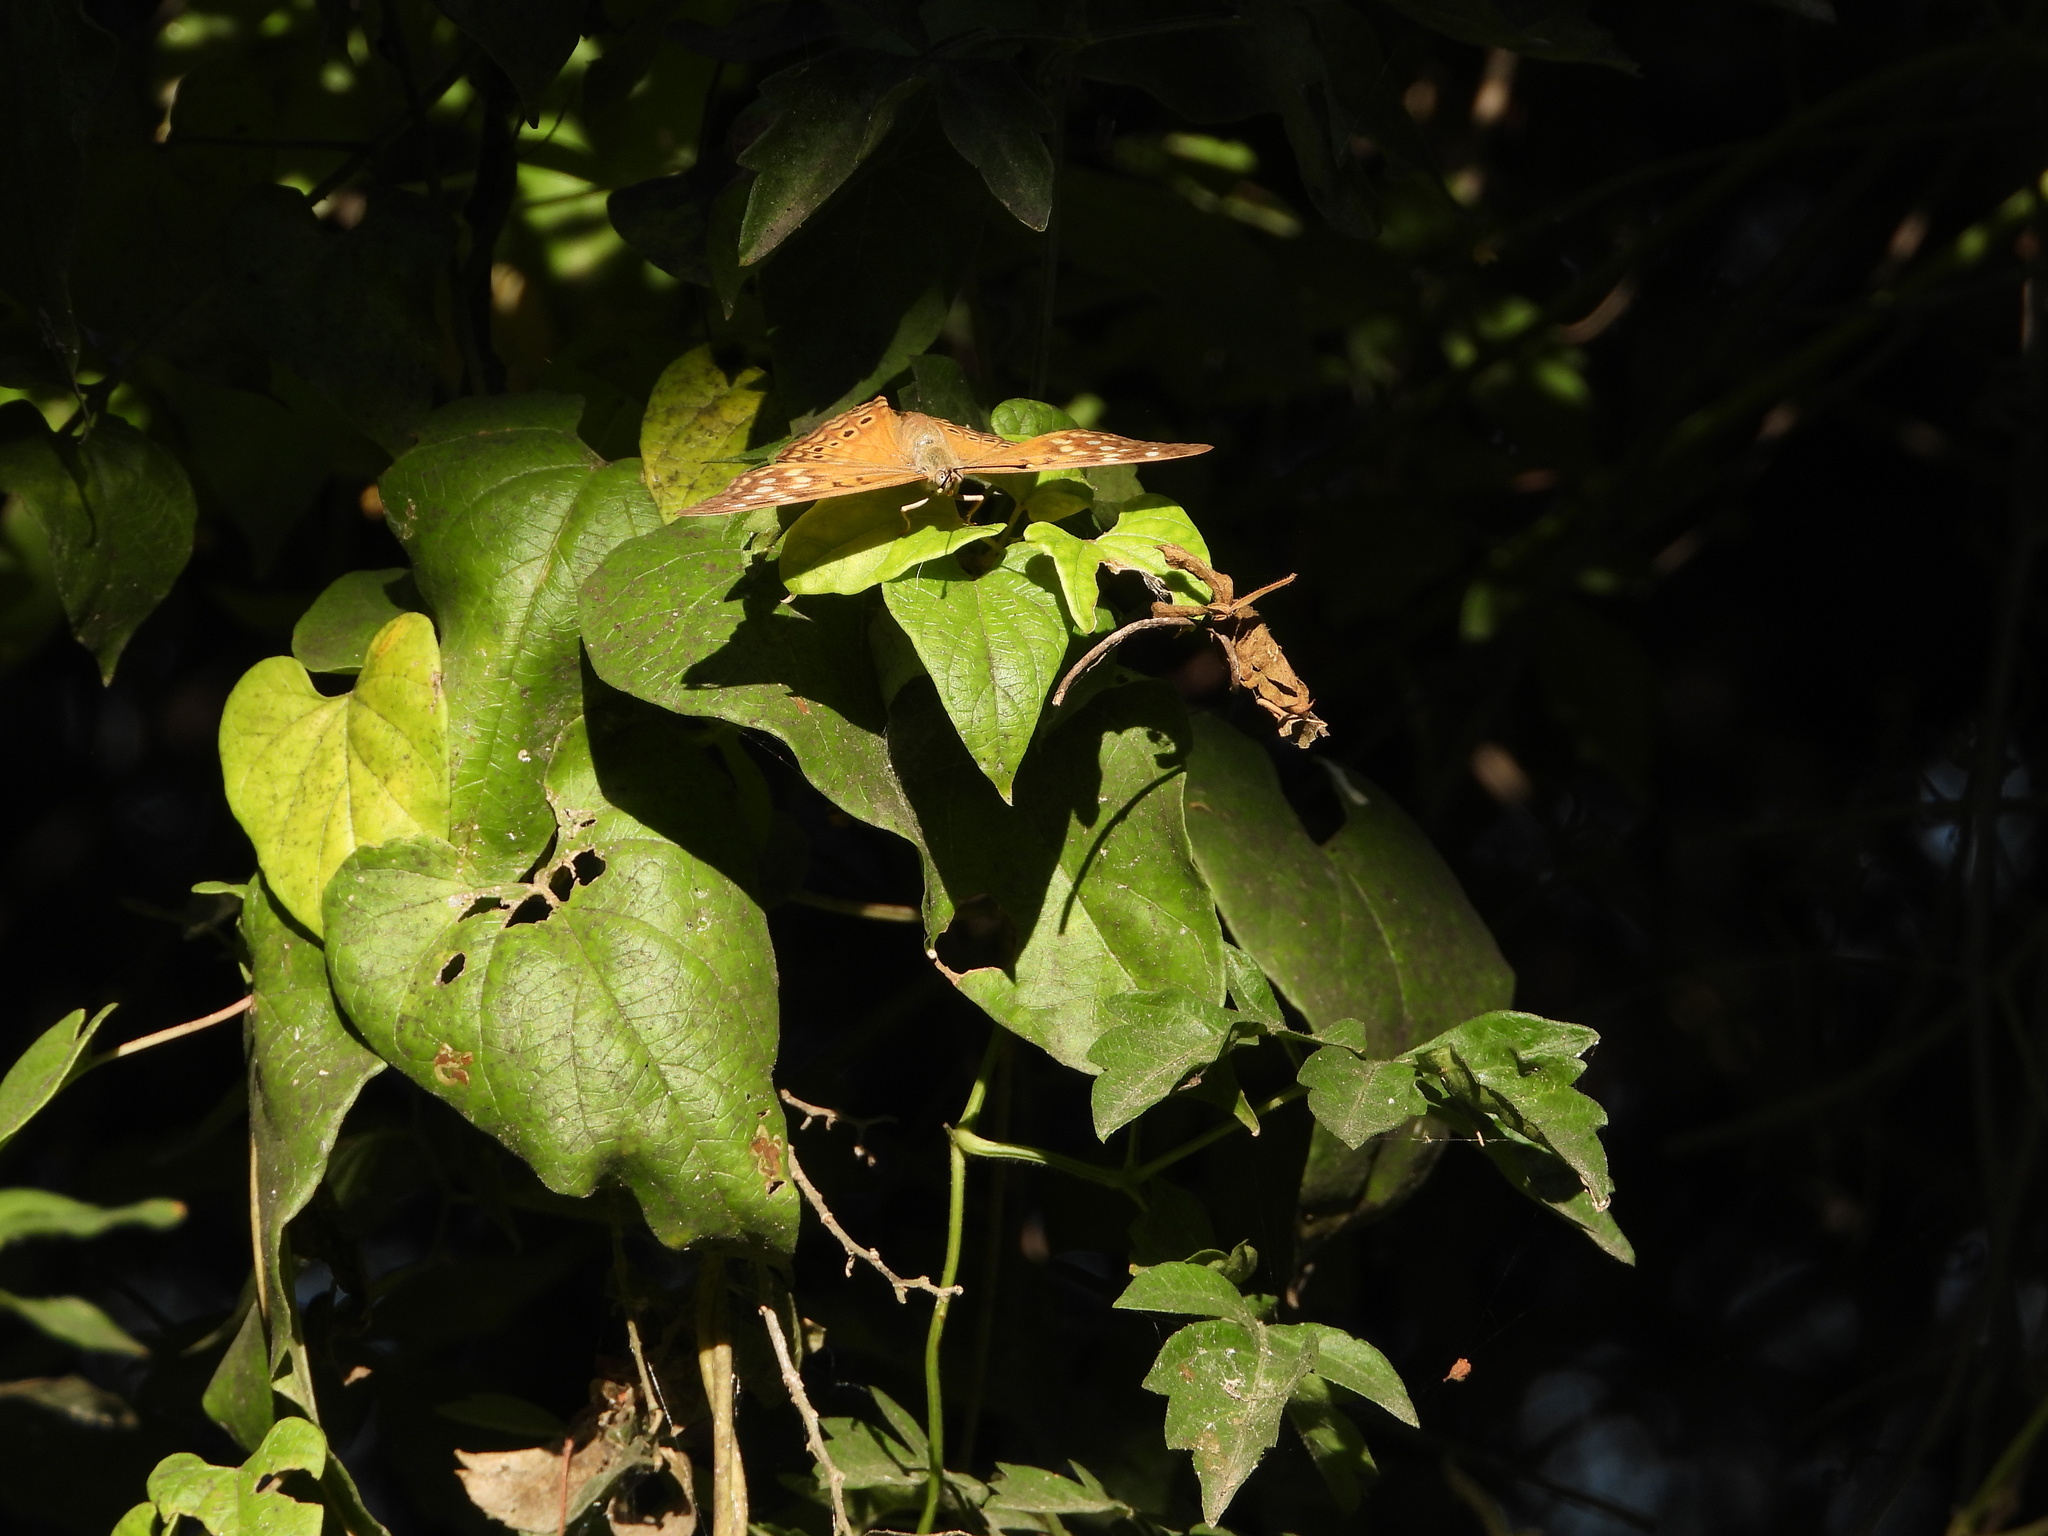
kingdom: Animalia
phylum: Arthropoda
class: Insecta
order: Lepidoptera
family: Nymphalidae
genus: Asterocampa
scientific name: Asterocampa celtis
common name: Hackberry emperor
